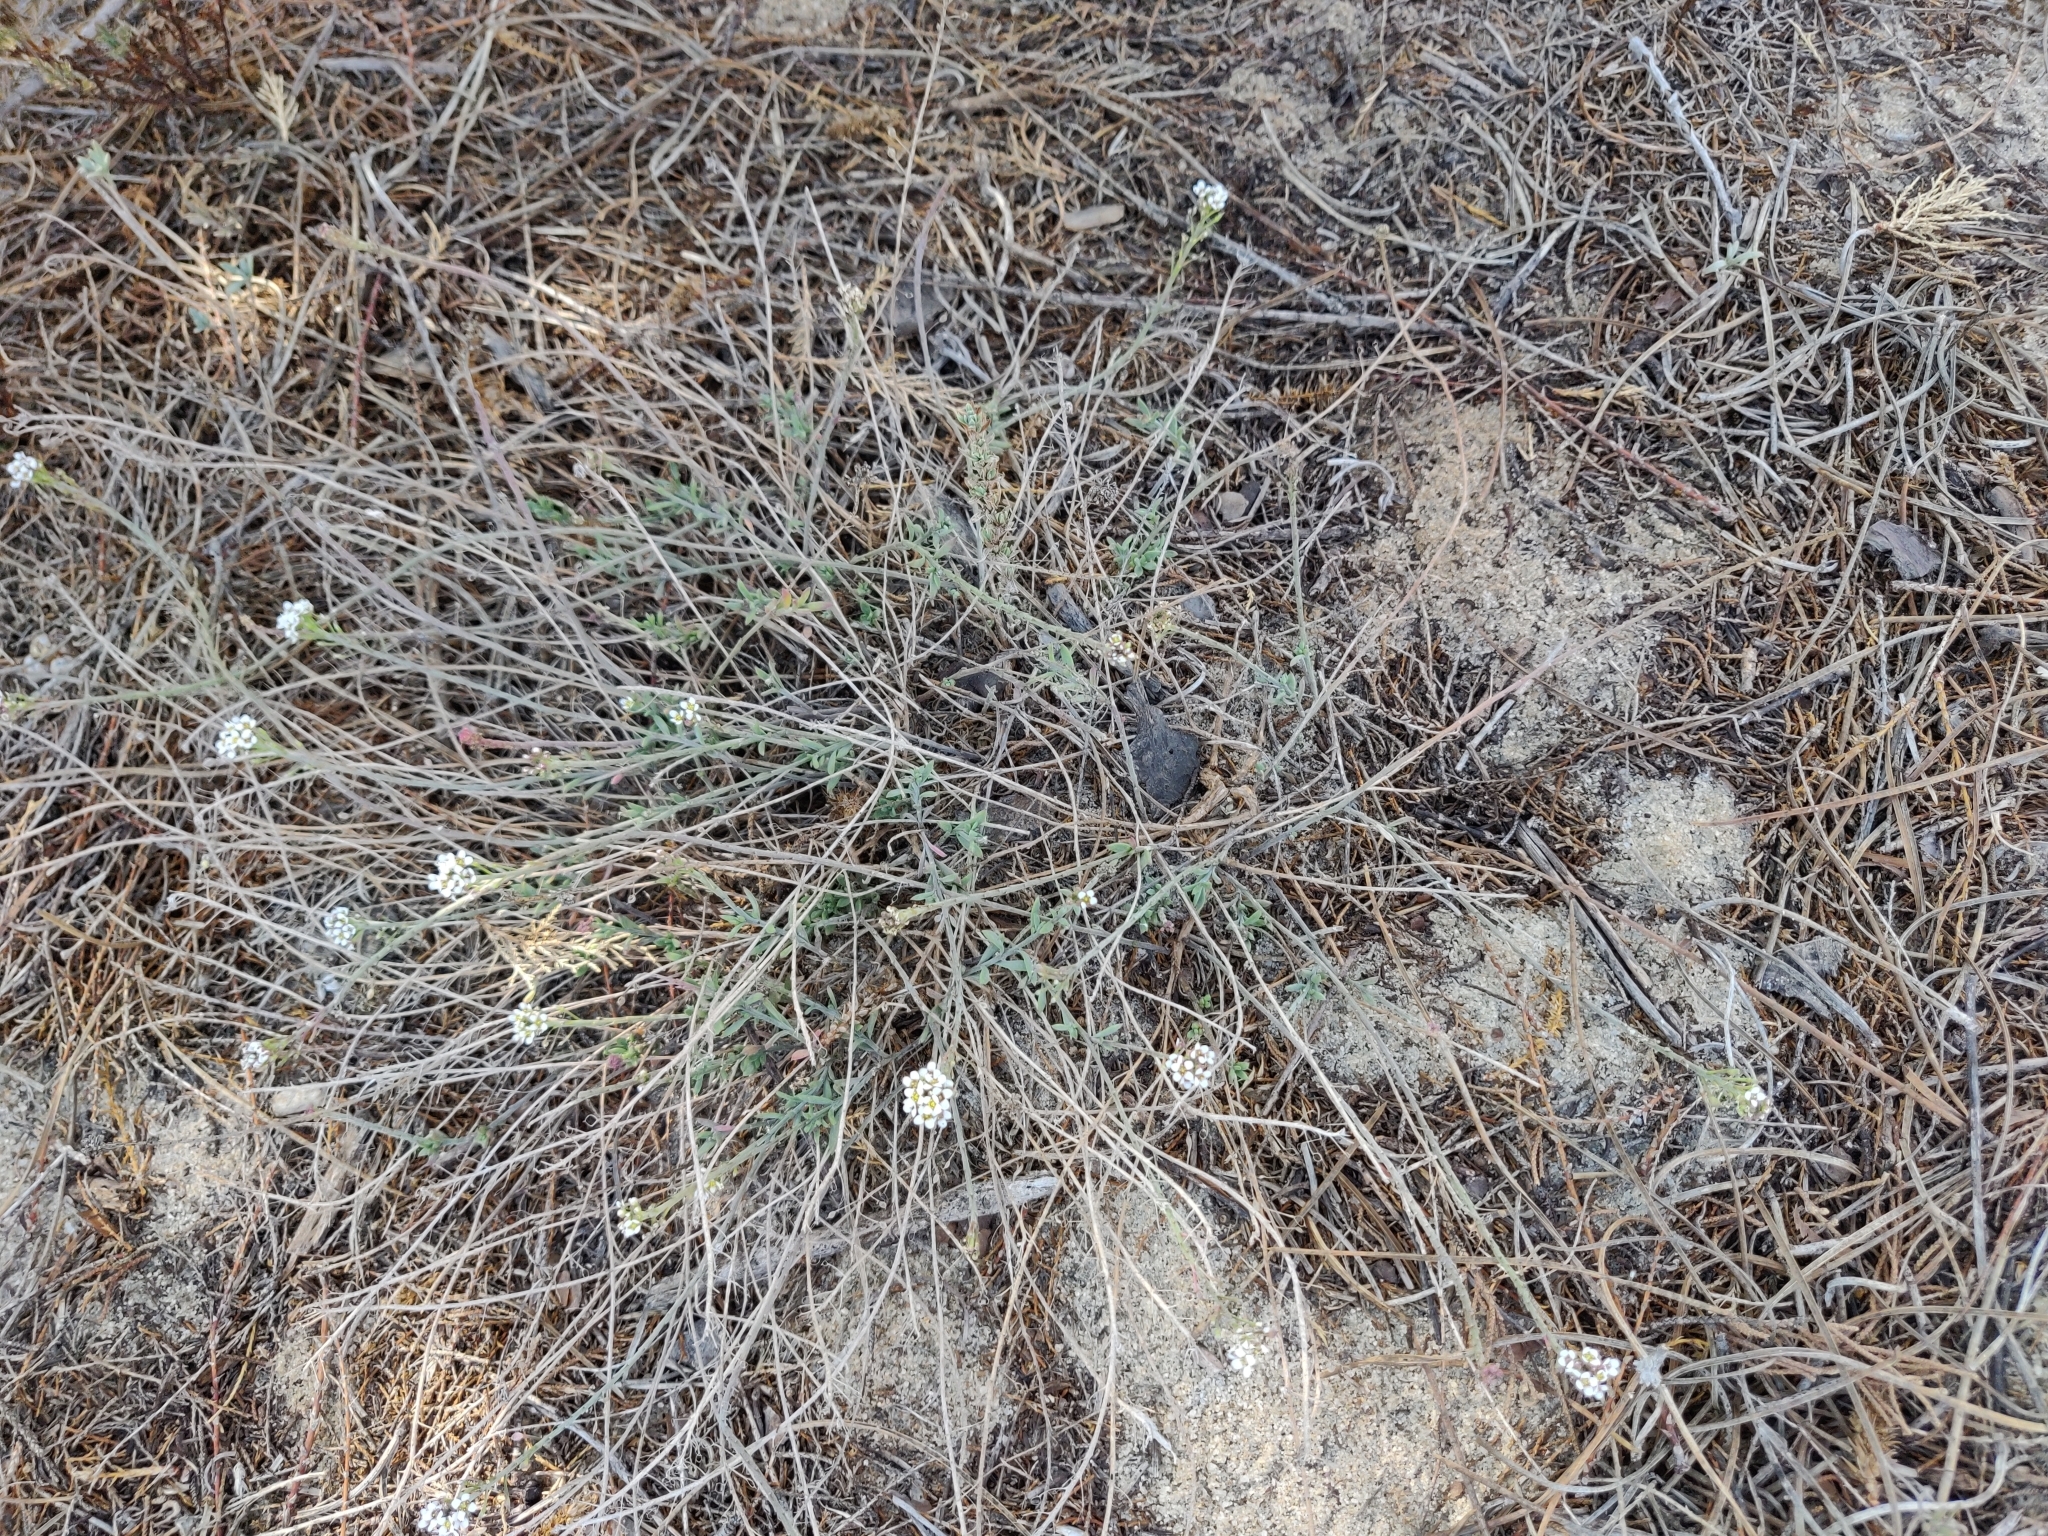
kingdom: Plantae
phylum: Tracheophyta
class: Magnoliopsida
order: Brassicales
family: Brassicaceae
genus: Lobularia
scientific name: Lobularia maritima
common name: Sweet alison
